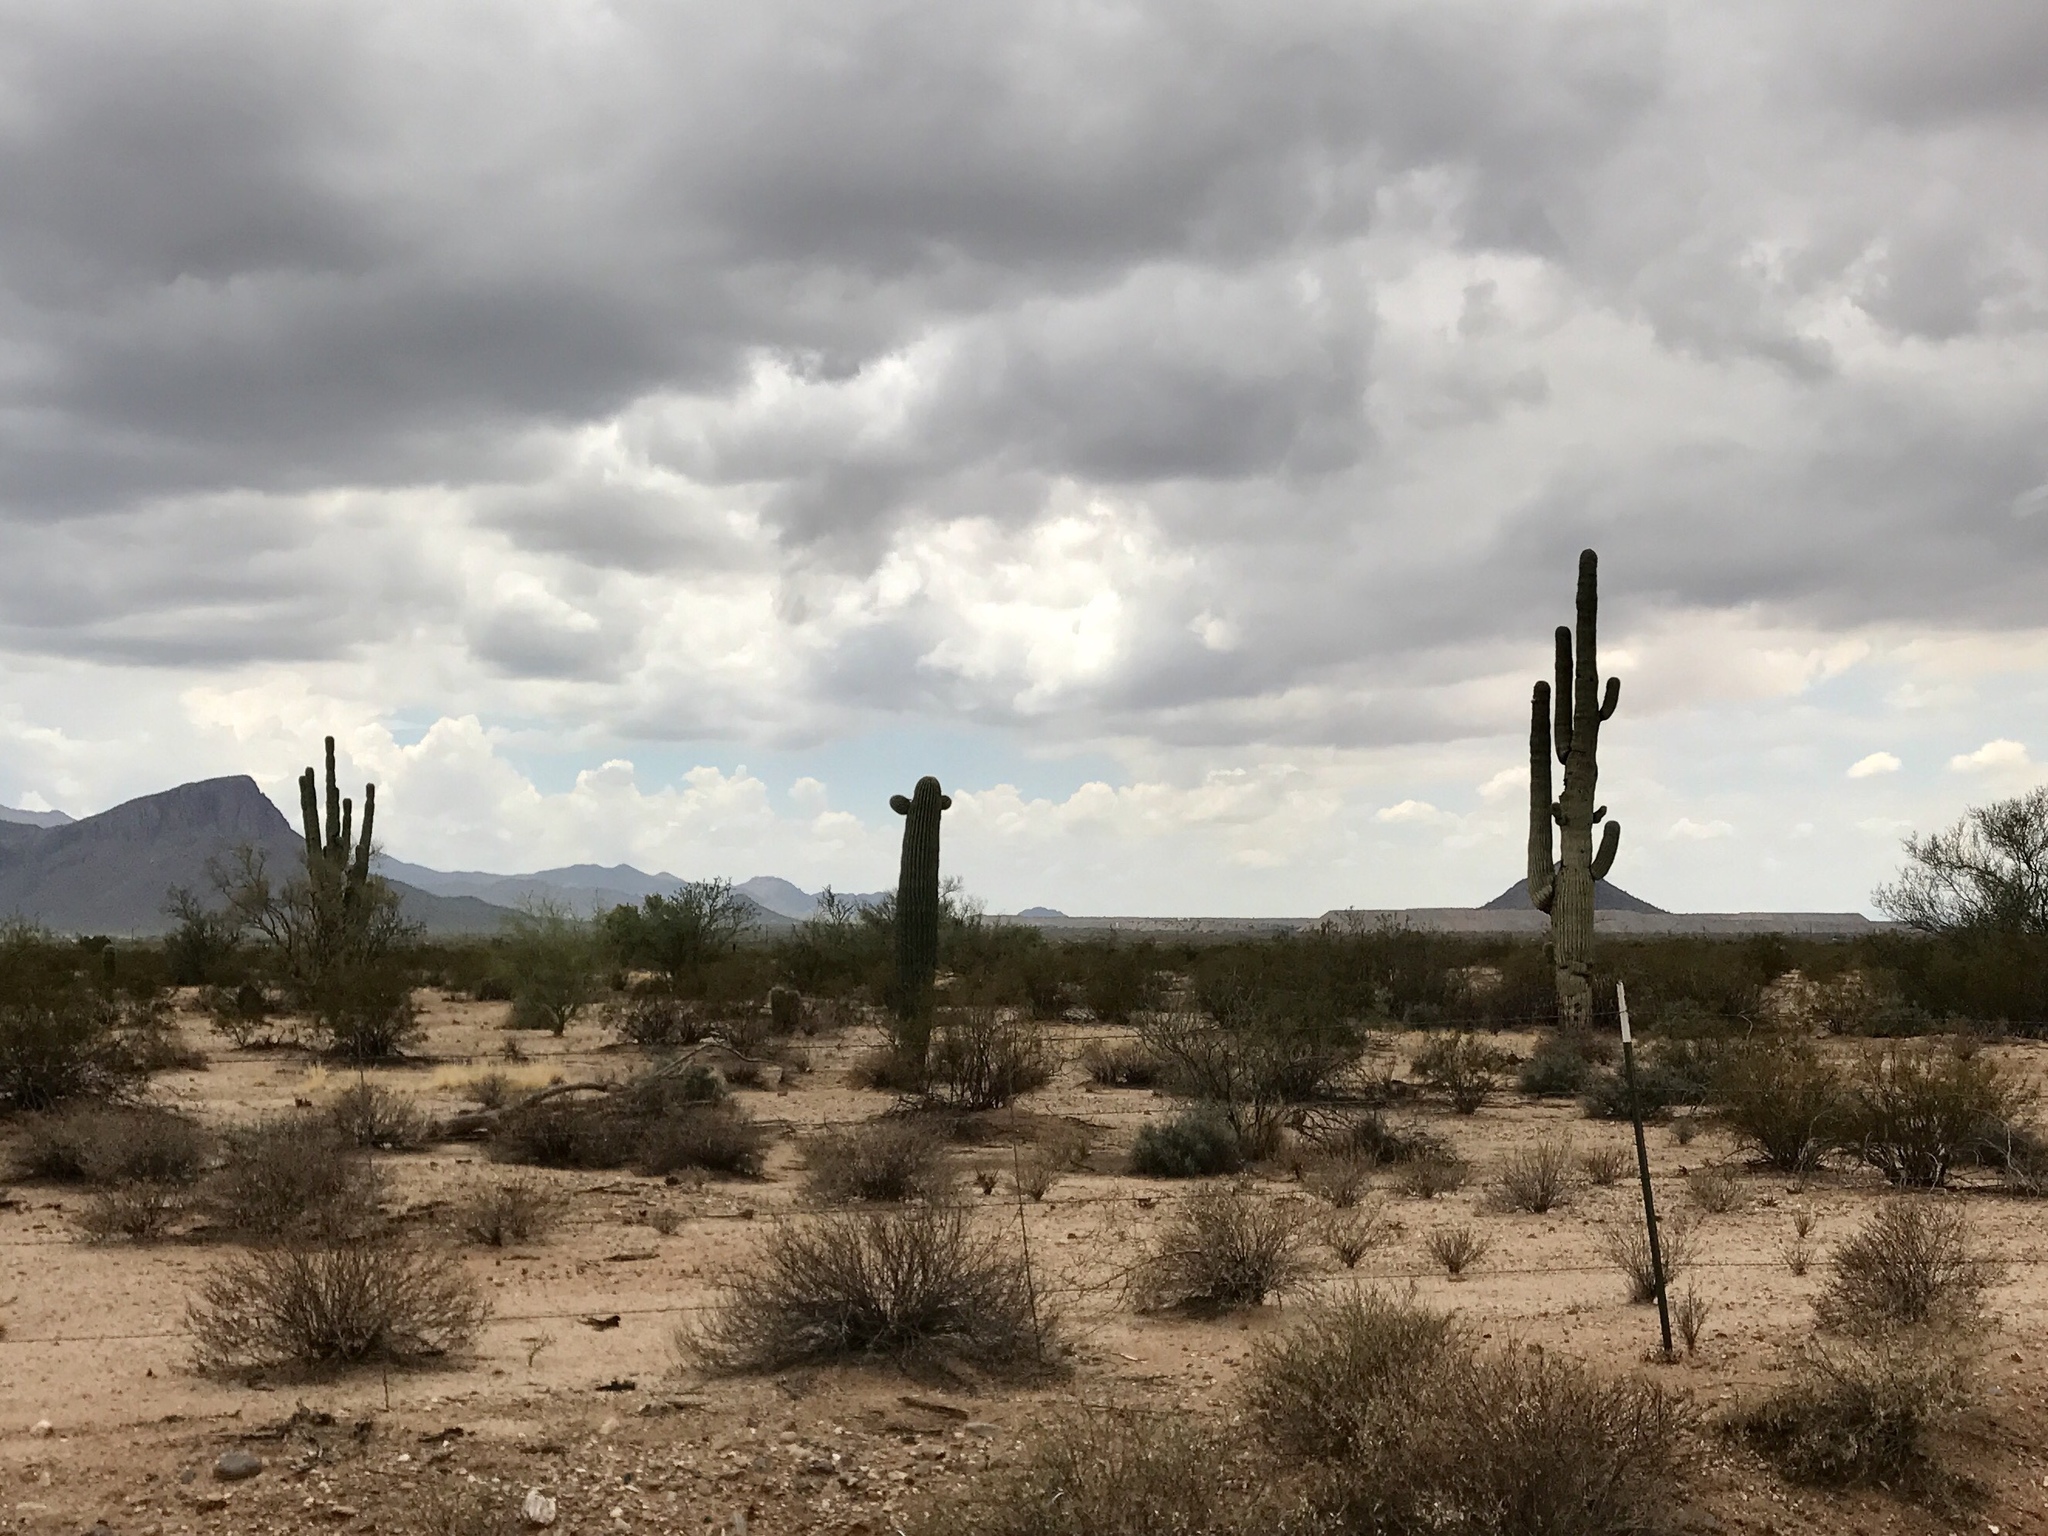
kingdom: Plantae
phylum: Tracheophyta
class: Magnoliopsida
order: Caryophyllales
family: Cactaceae
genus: Carnegiea
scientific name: Carnegiea gigantea
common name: Saguaro
